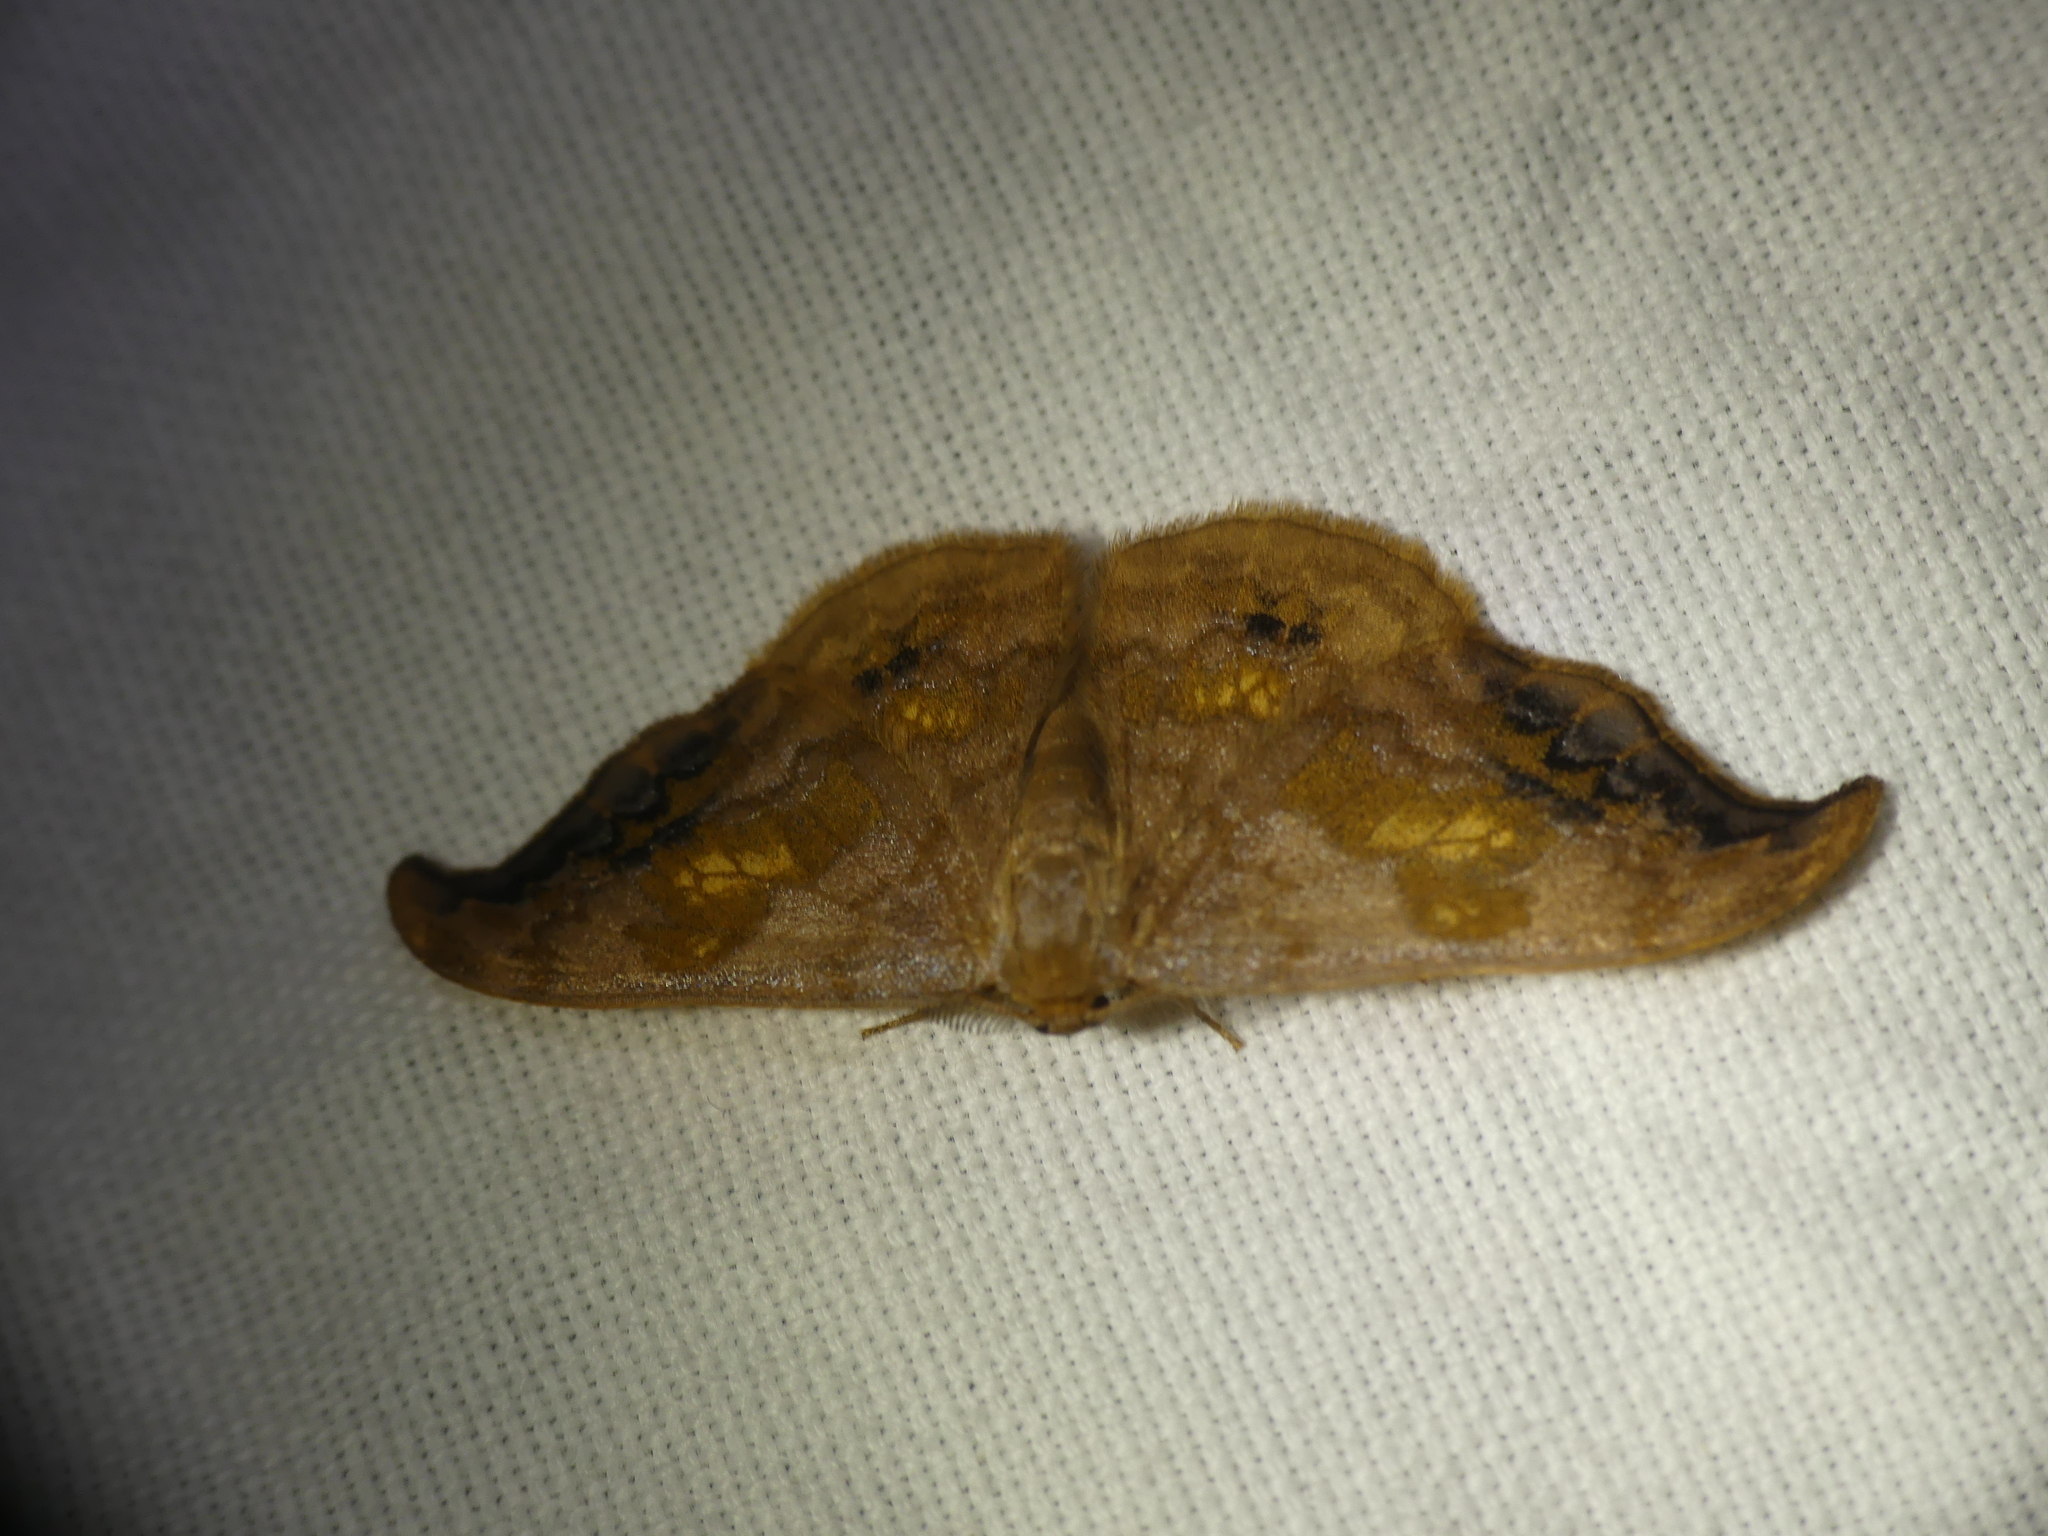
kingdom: Animalia
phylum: Arthropoda
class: Insecta
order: Lepidoptera
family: Drepanidae
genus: Sabra
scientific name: Sabra harpagula
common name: Scarce hook-tip
